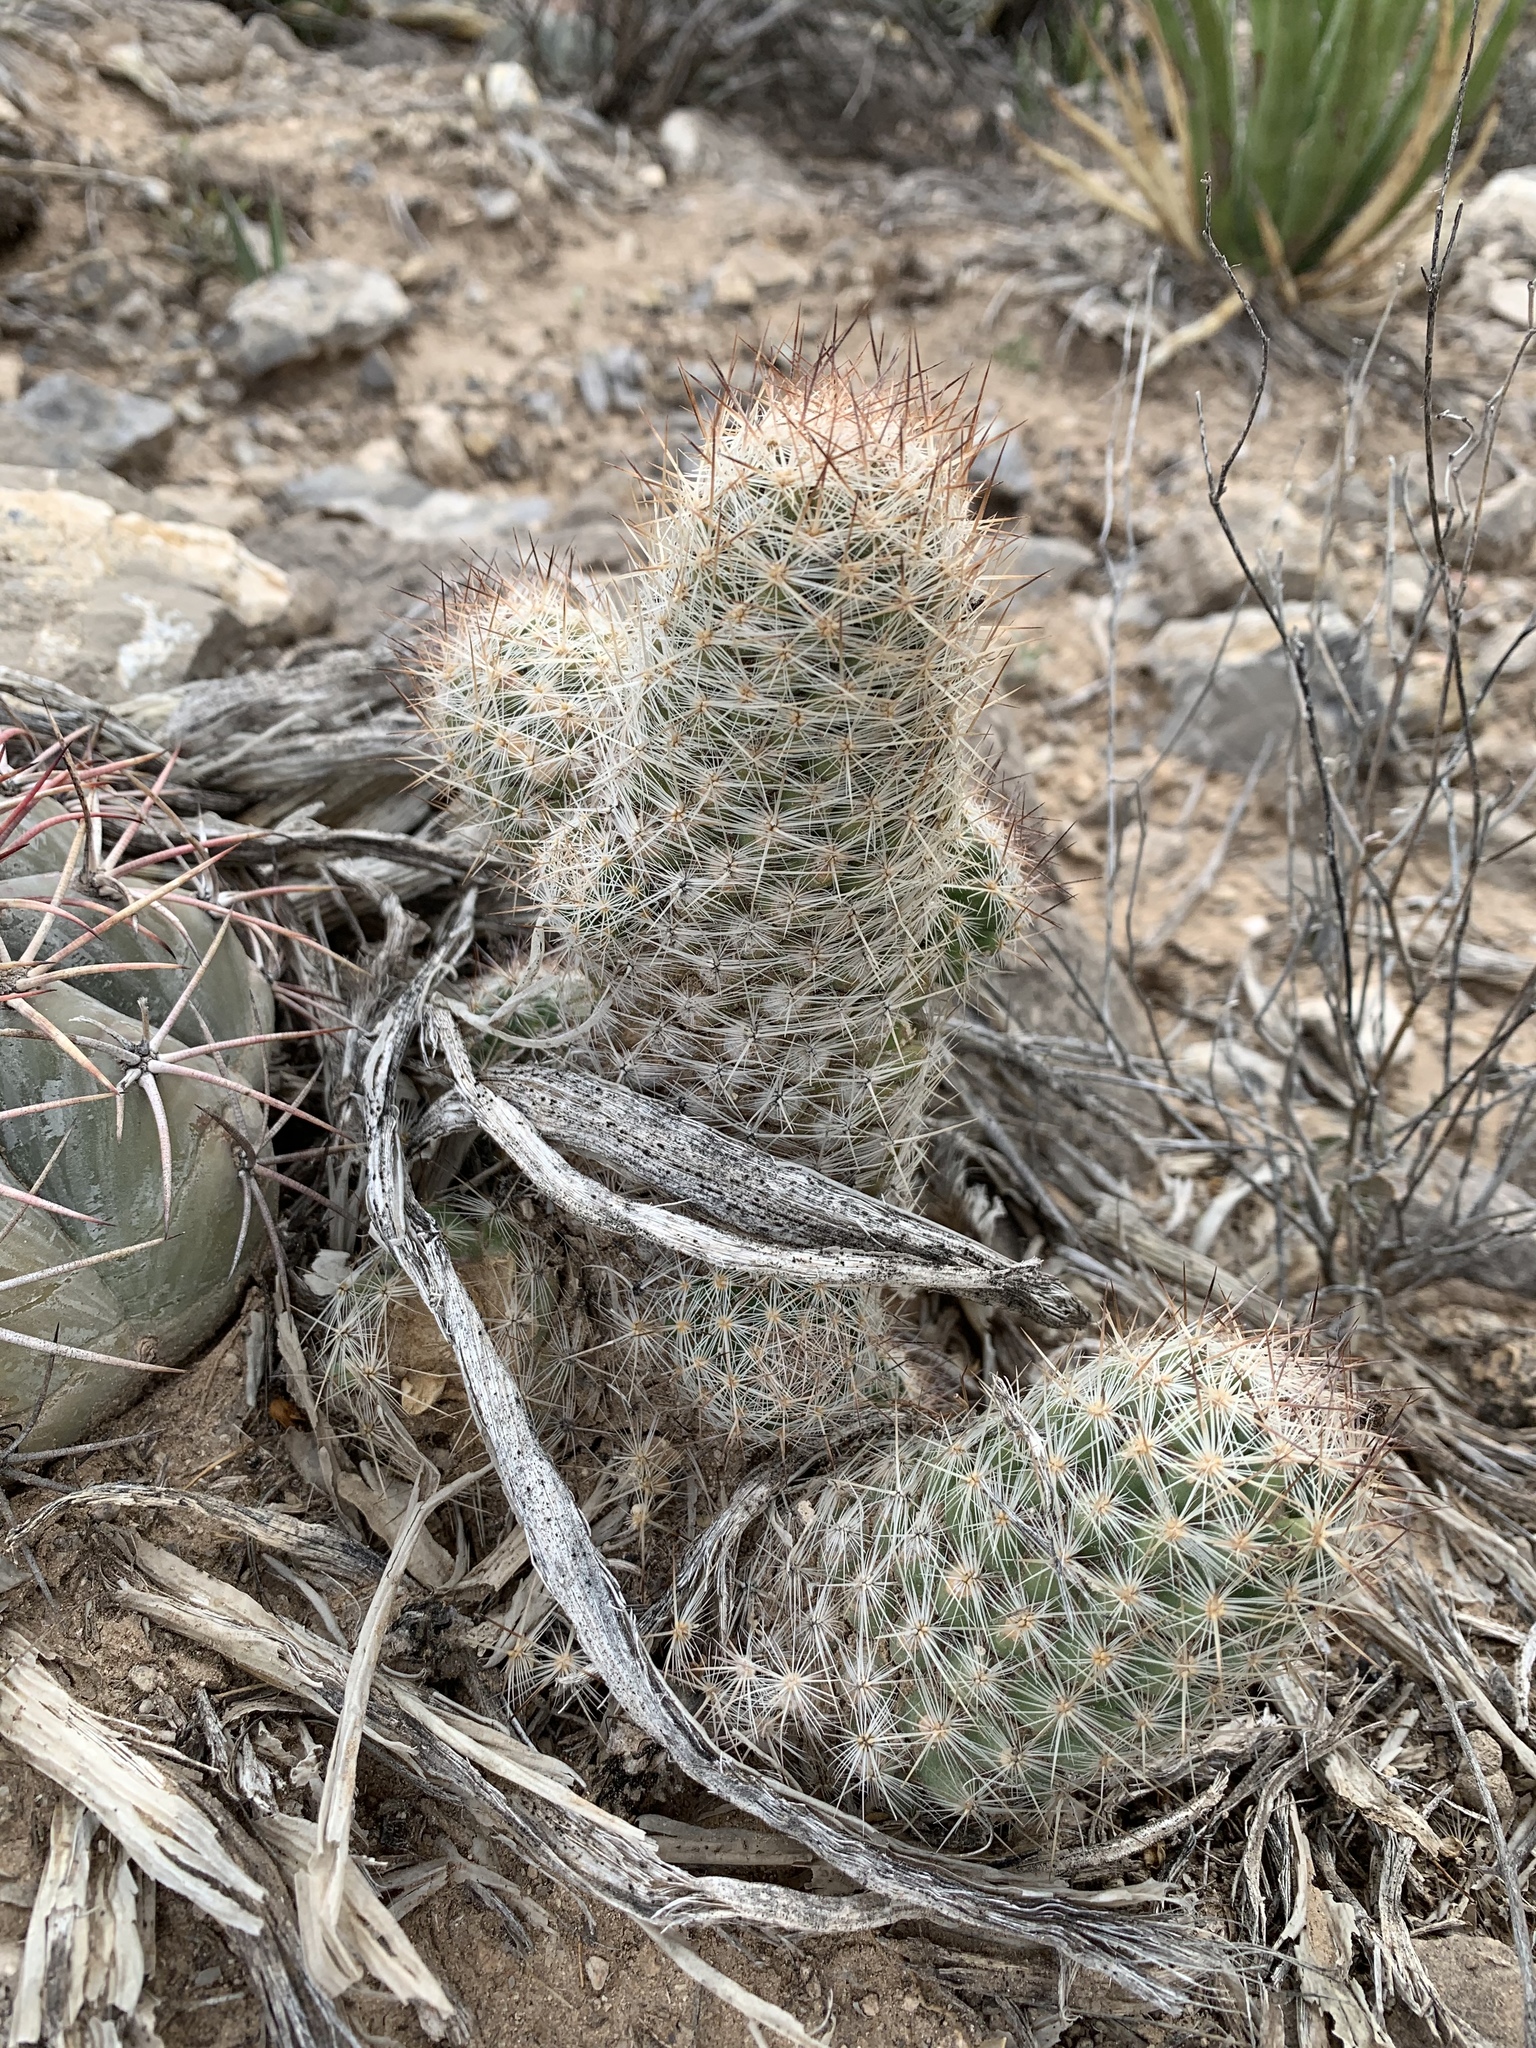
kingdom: Plantae
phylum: Tracheophyta
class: Magnoliopsida
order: Caryophyllales
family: Cactaceae
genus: Pelecyphora
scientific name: Pelecyphora tuberculosa
